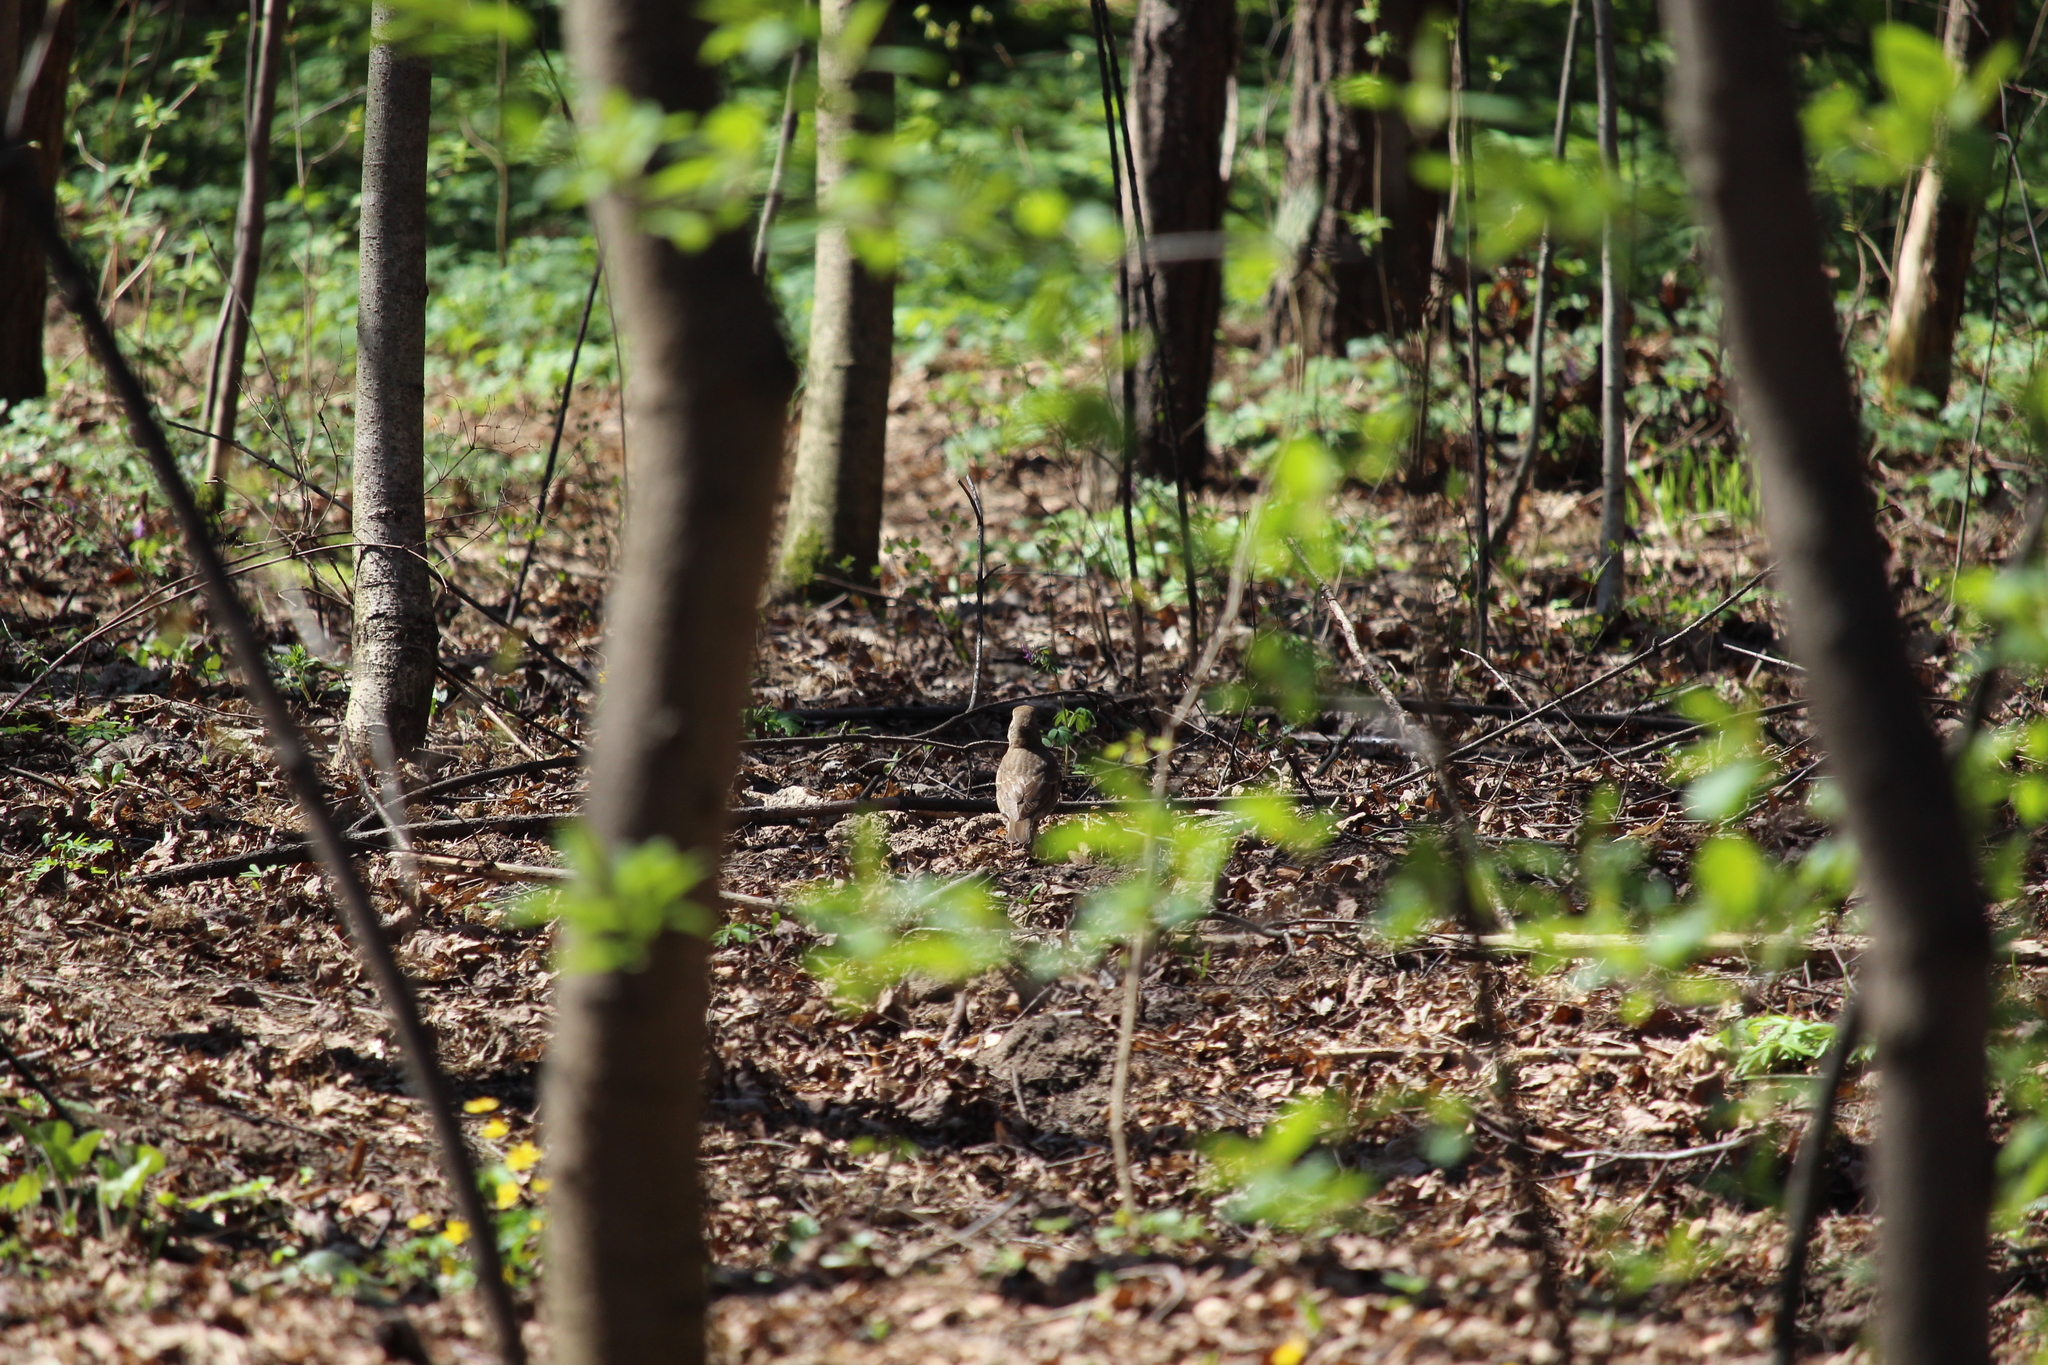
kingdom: Animalia
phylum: Chordata
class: Aves
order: Passeriformes
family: Turdidae
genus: Turdus
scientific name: Turdus philomelos
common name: Song thrush
